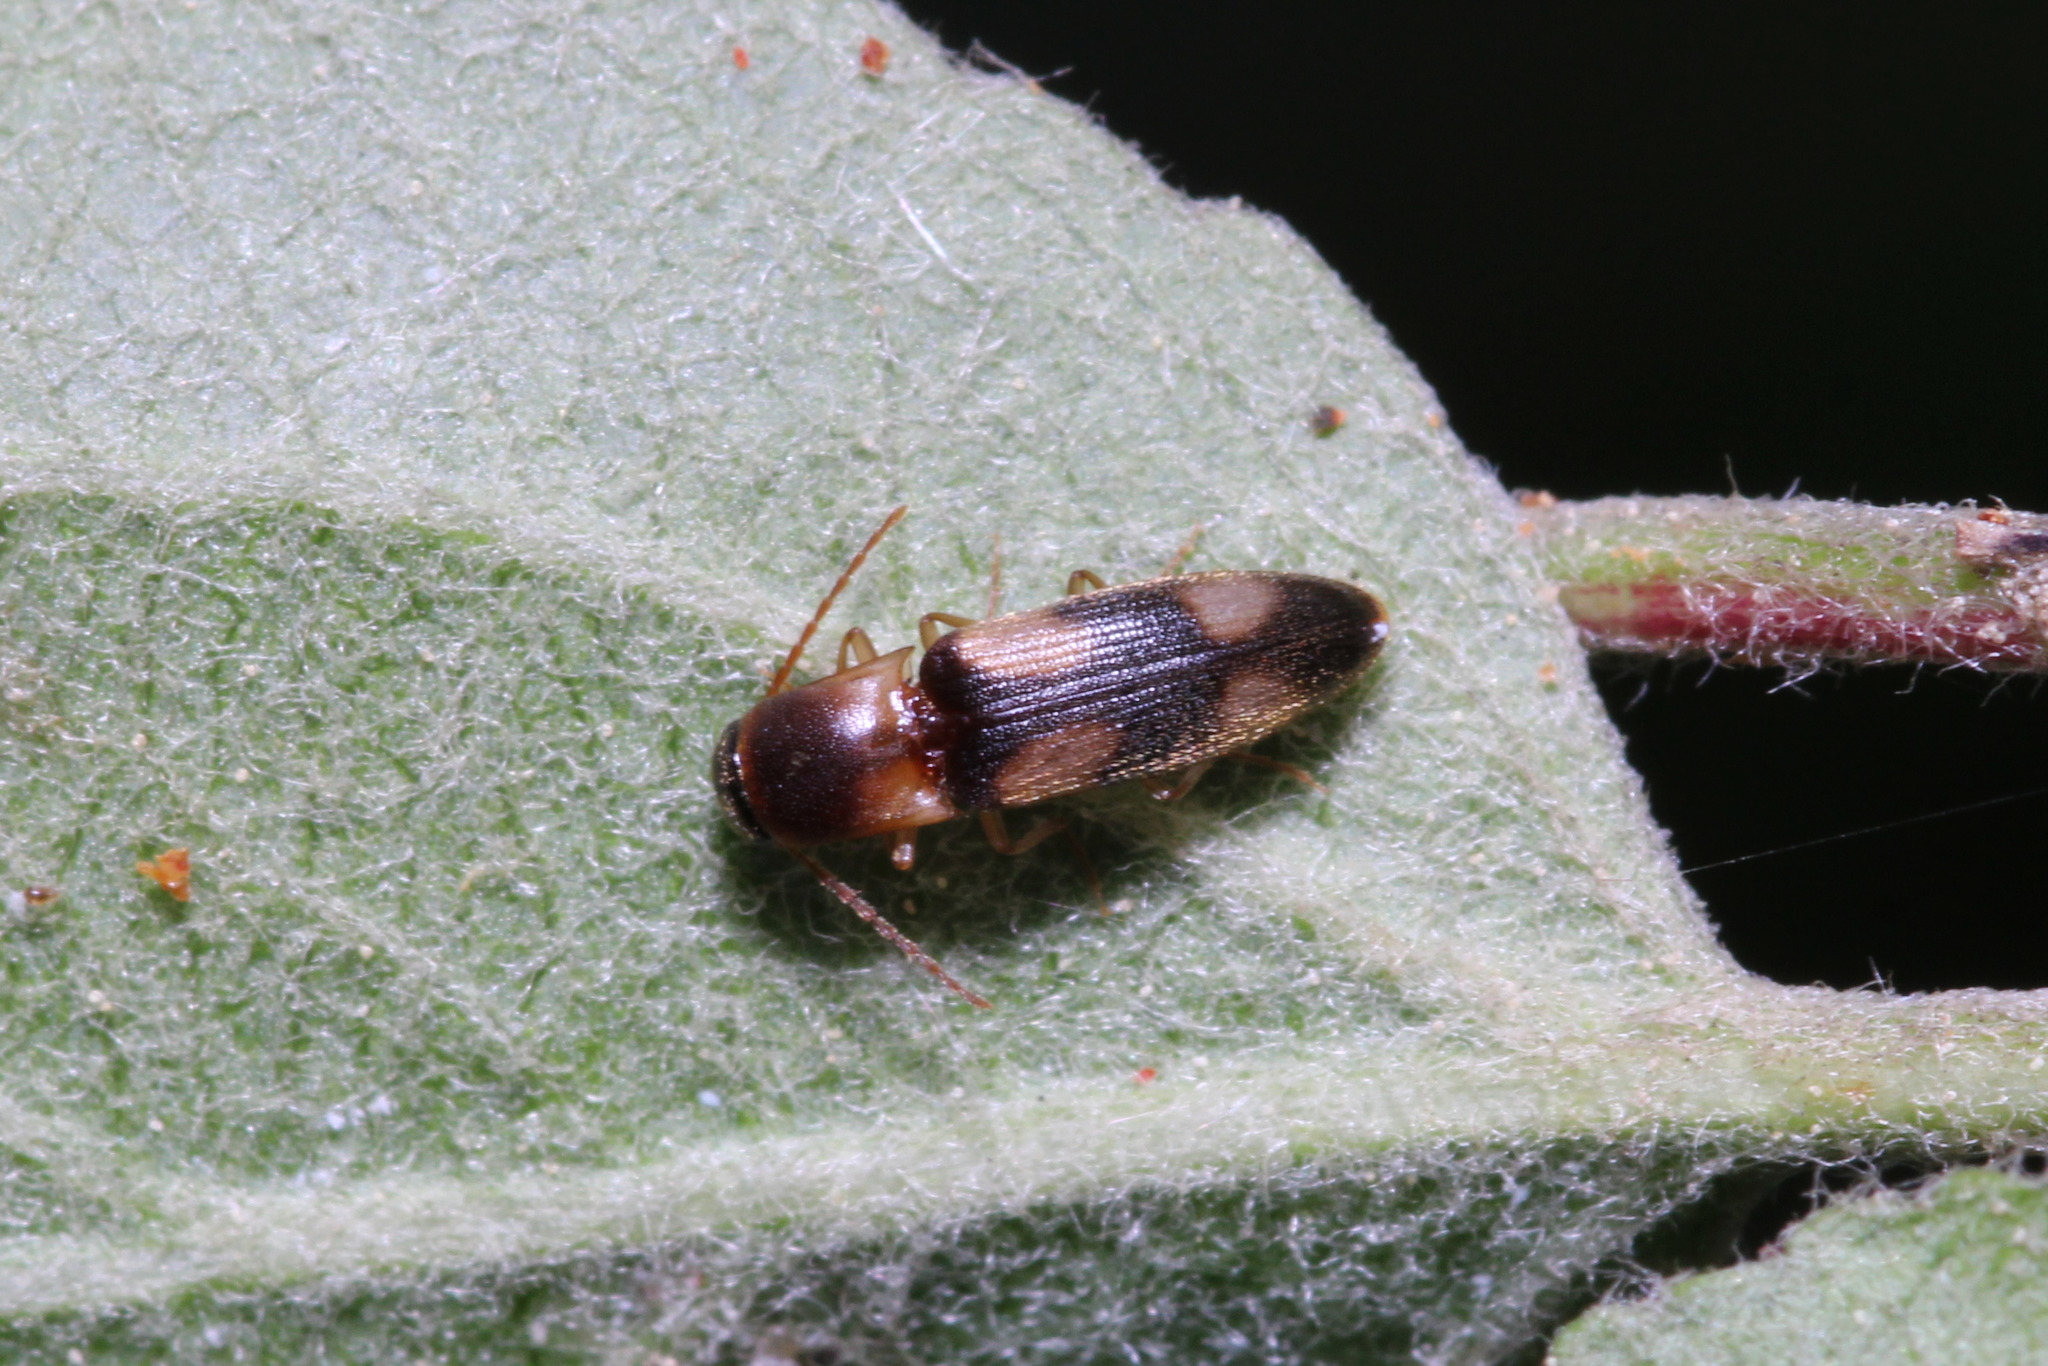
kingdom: Animalia
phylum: Arthropoda
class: Insecta
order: Coleoptera
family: Elateridae
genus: Betarmon
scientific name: Betarmon bisbimaculatus
